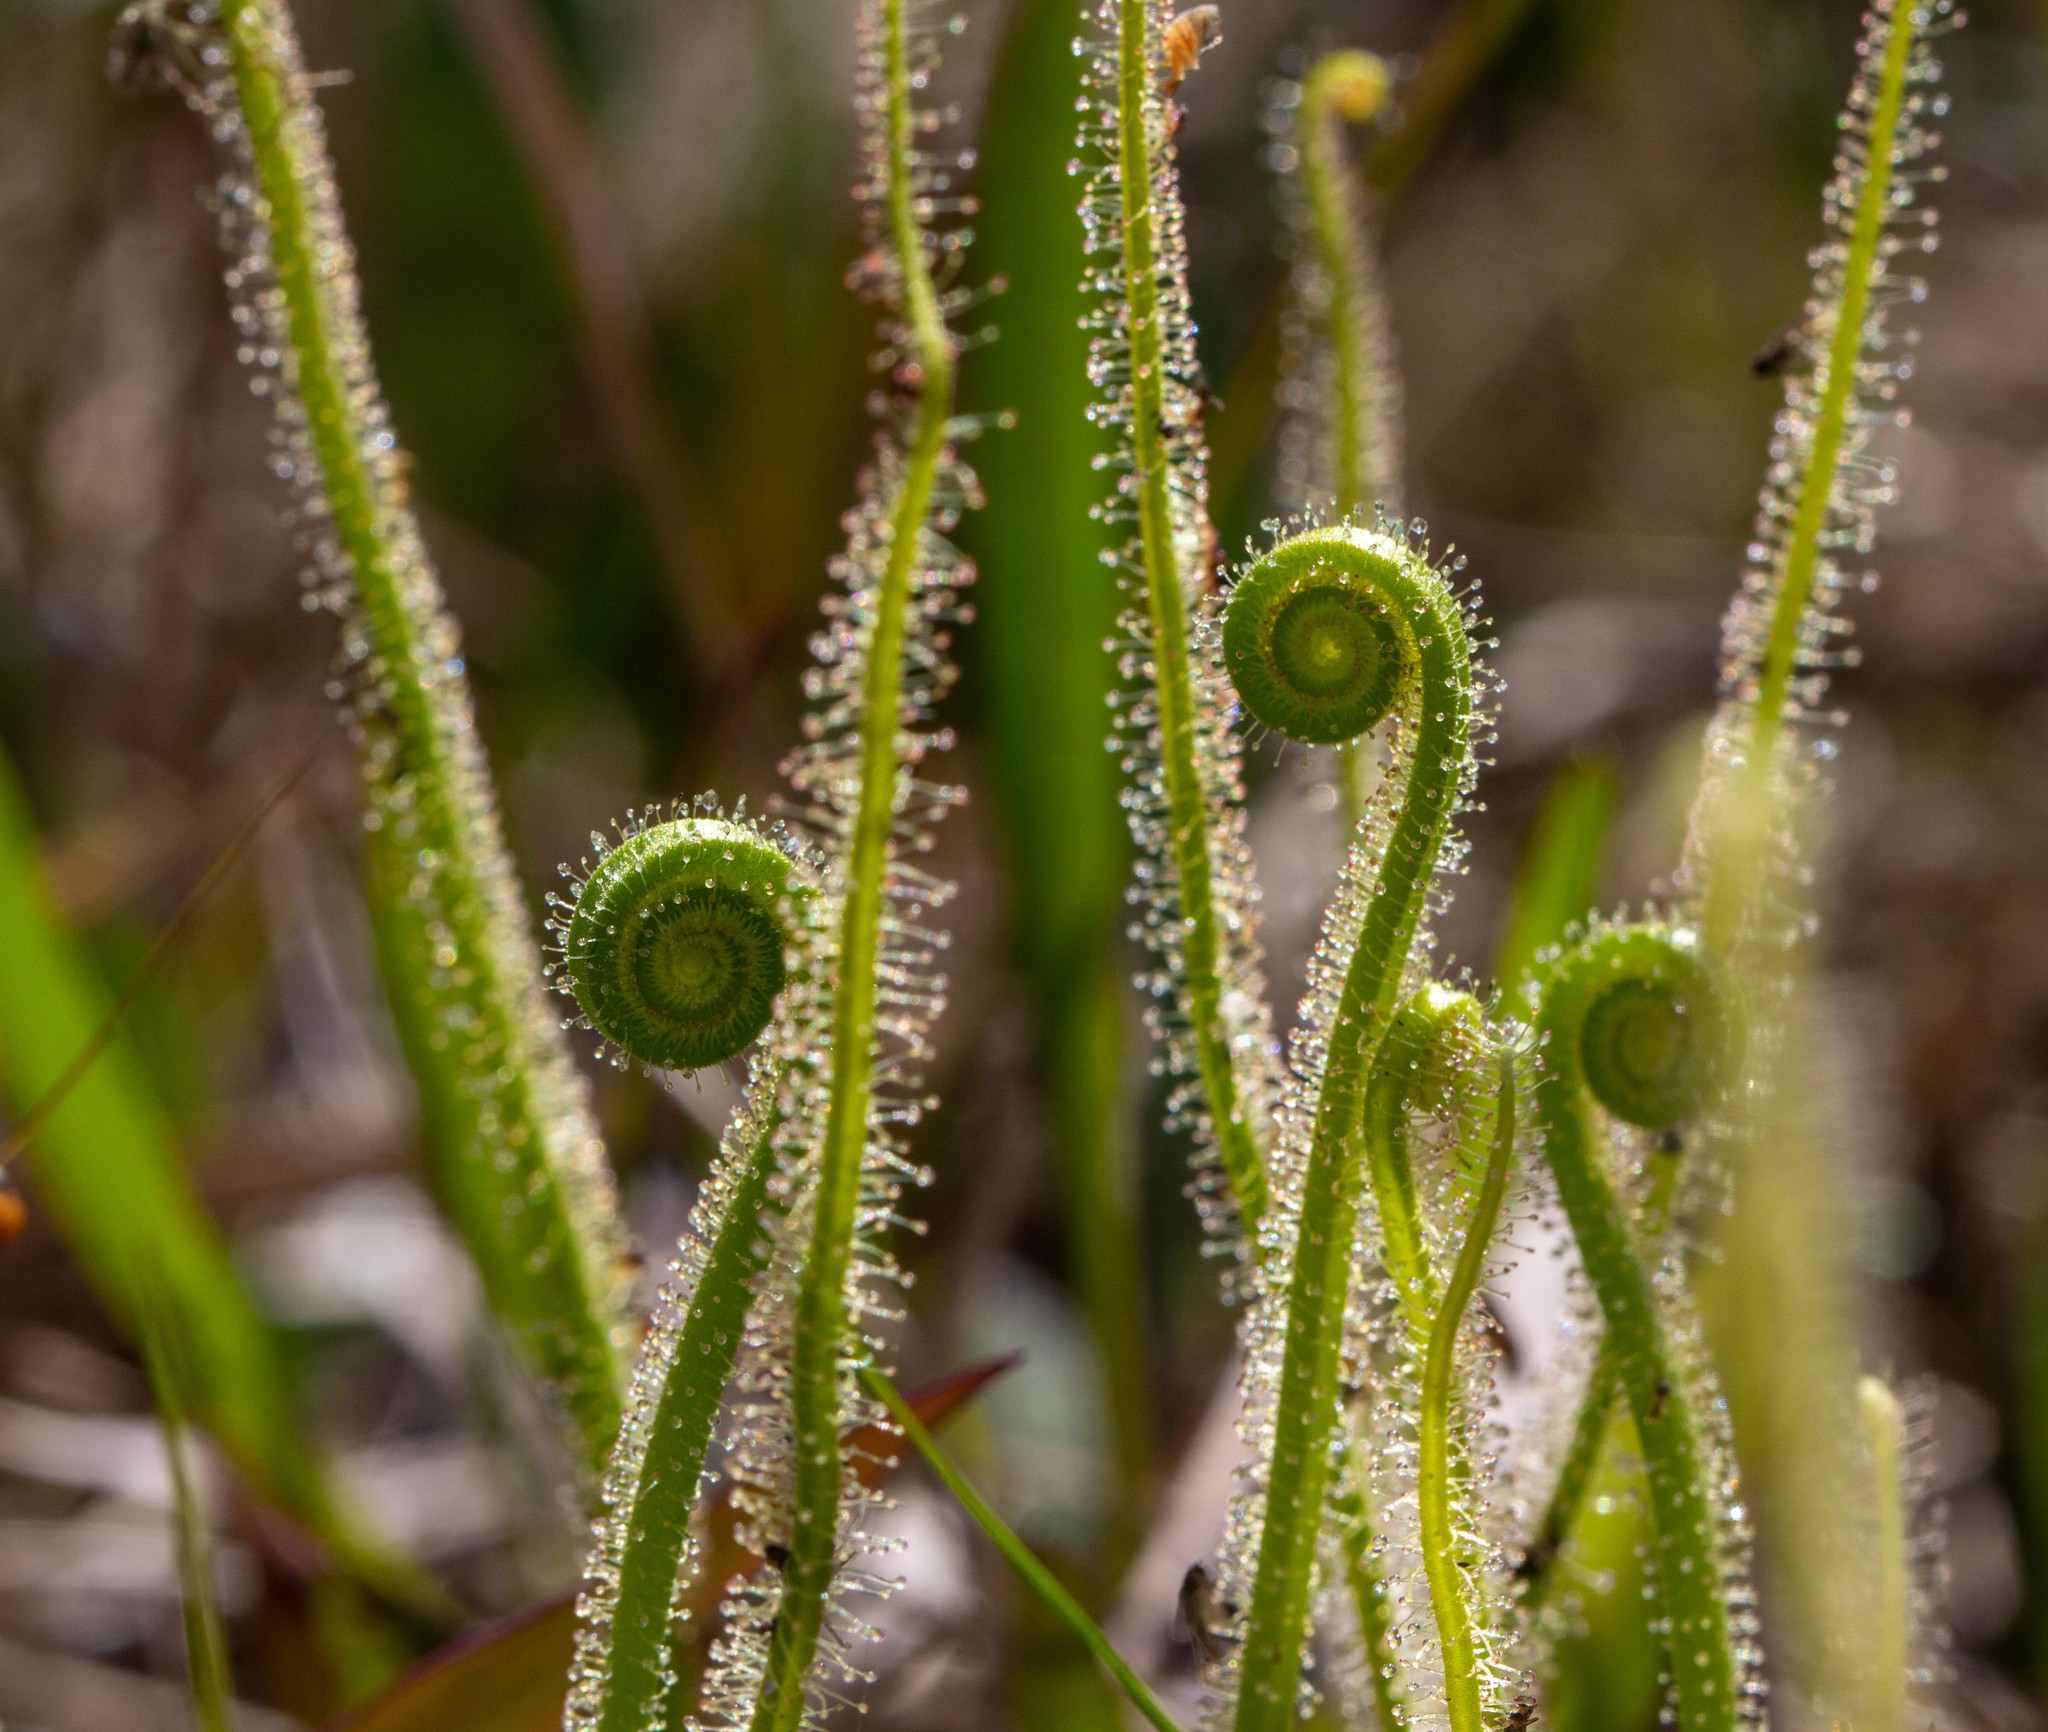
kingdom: Plantae
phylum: Tracheophyta
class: Magnoliopsida
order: Caryophyllales
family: Droseraceae
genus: Drosera
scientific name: Drosera filiformis
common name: Dew-thread
